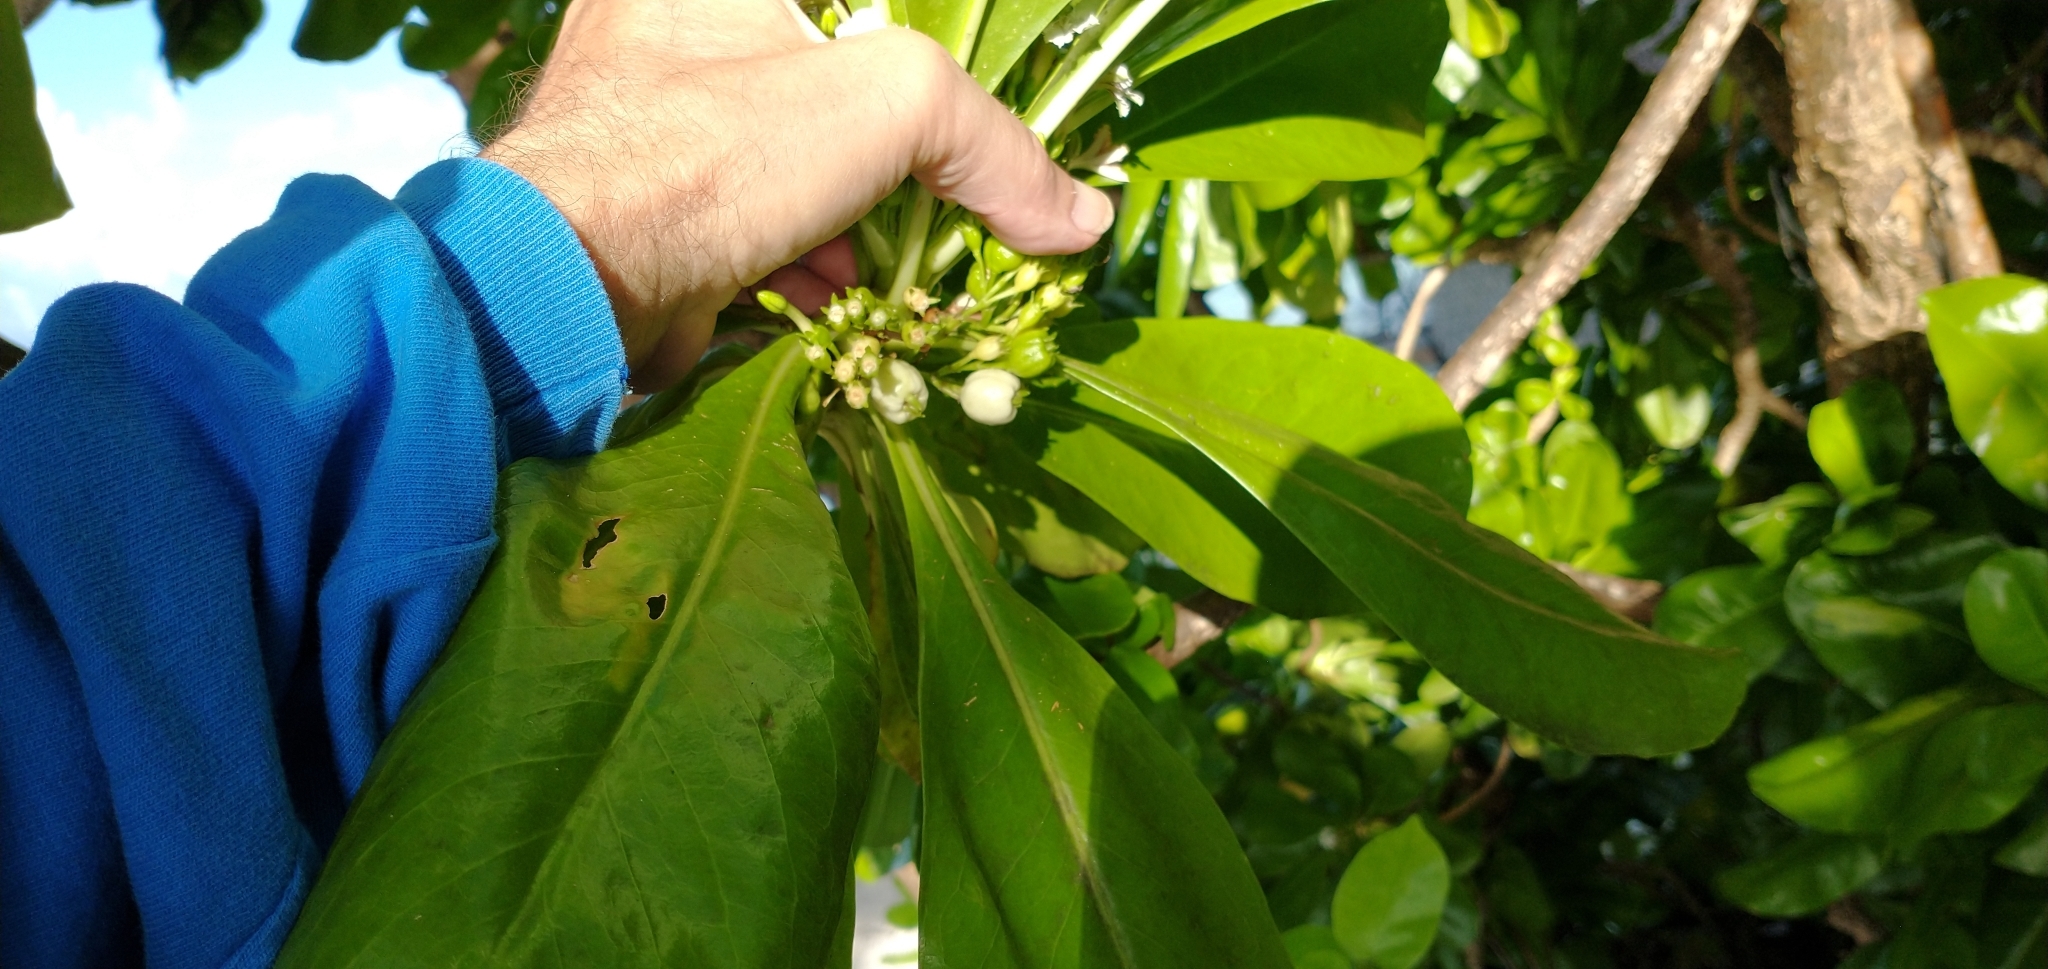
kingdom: Plantae
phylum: Tracheophyta
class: Magnoliopsida
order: Asterales
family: Goodeniaceae
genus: Scaevola
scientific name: Scaevola taccada
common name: Sea lettucetree
